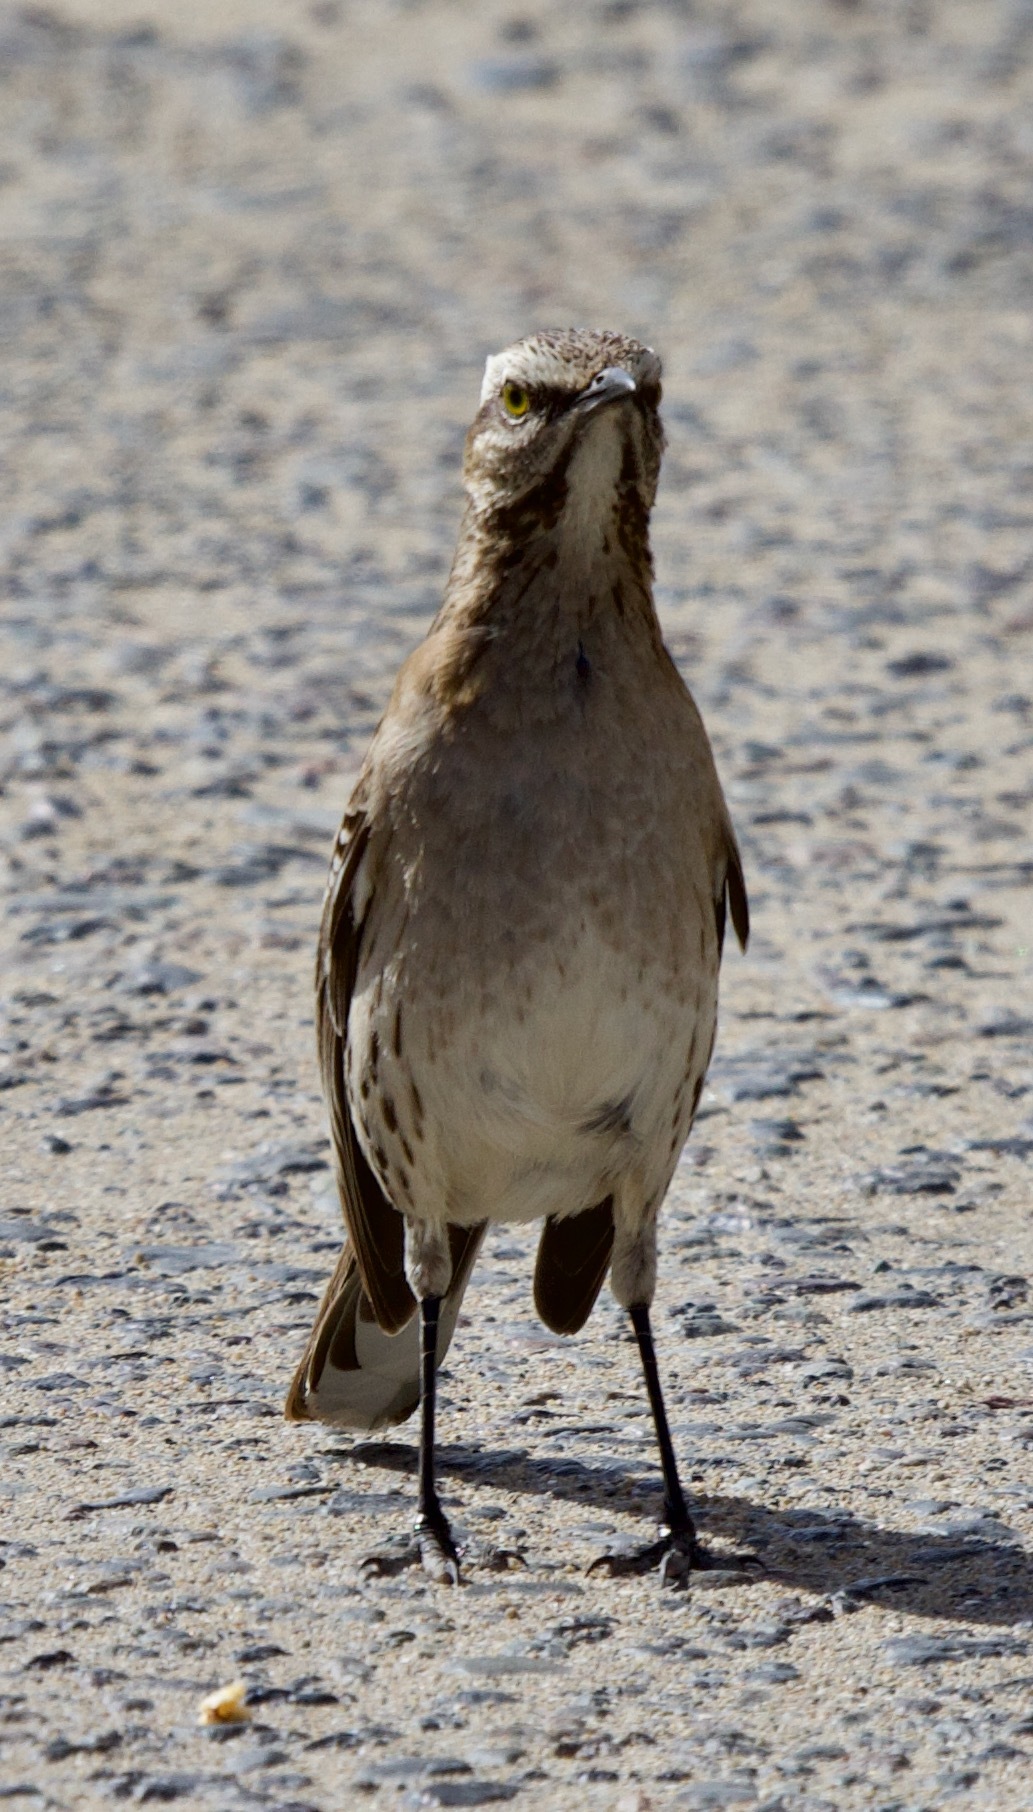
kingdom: Animalia
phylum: Chordata
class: Aves
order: Passeriformes
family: Mimidae
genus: Mimus
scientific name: Mimus thenca
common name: Chilean mockingbird
